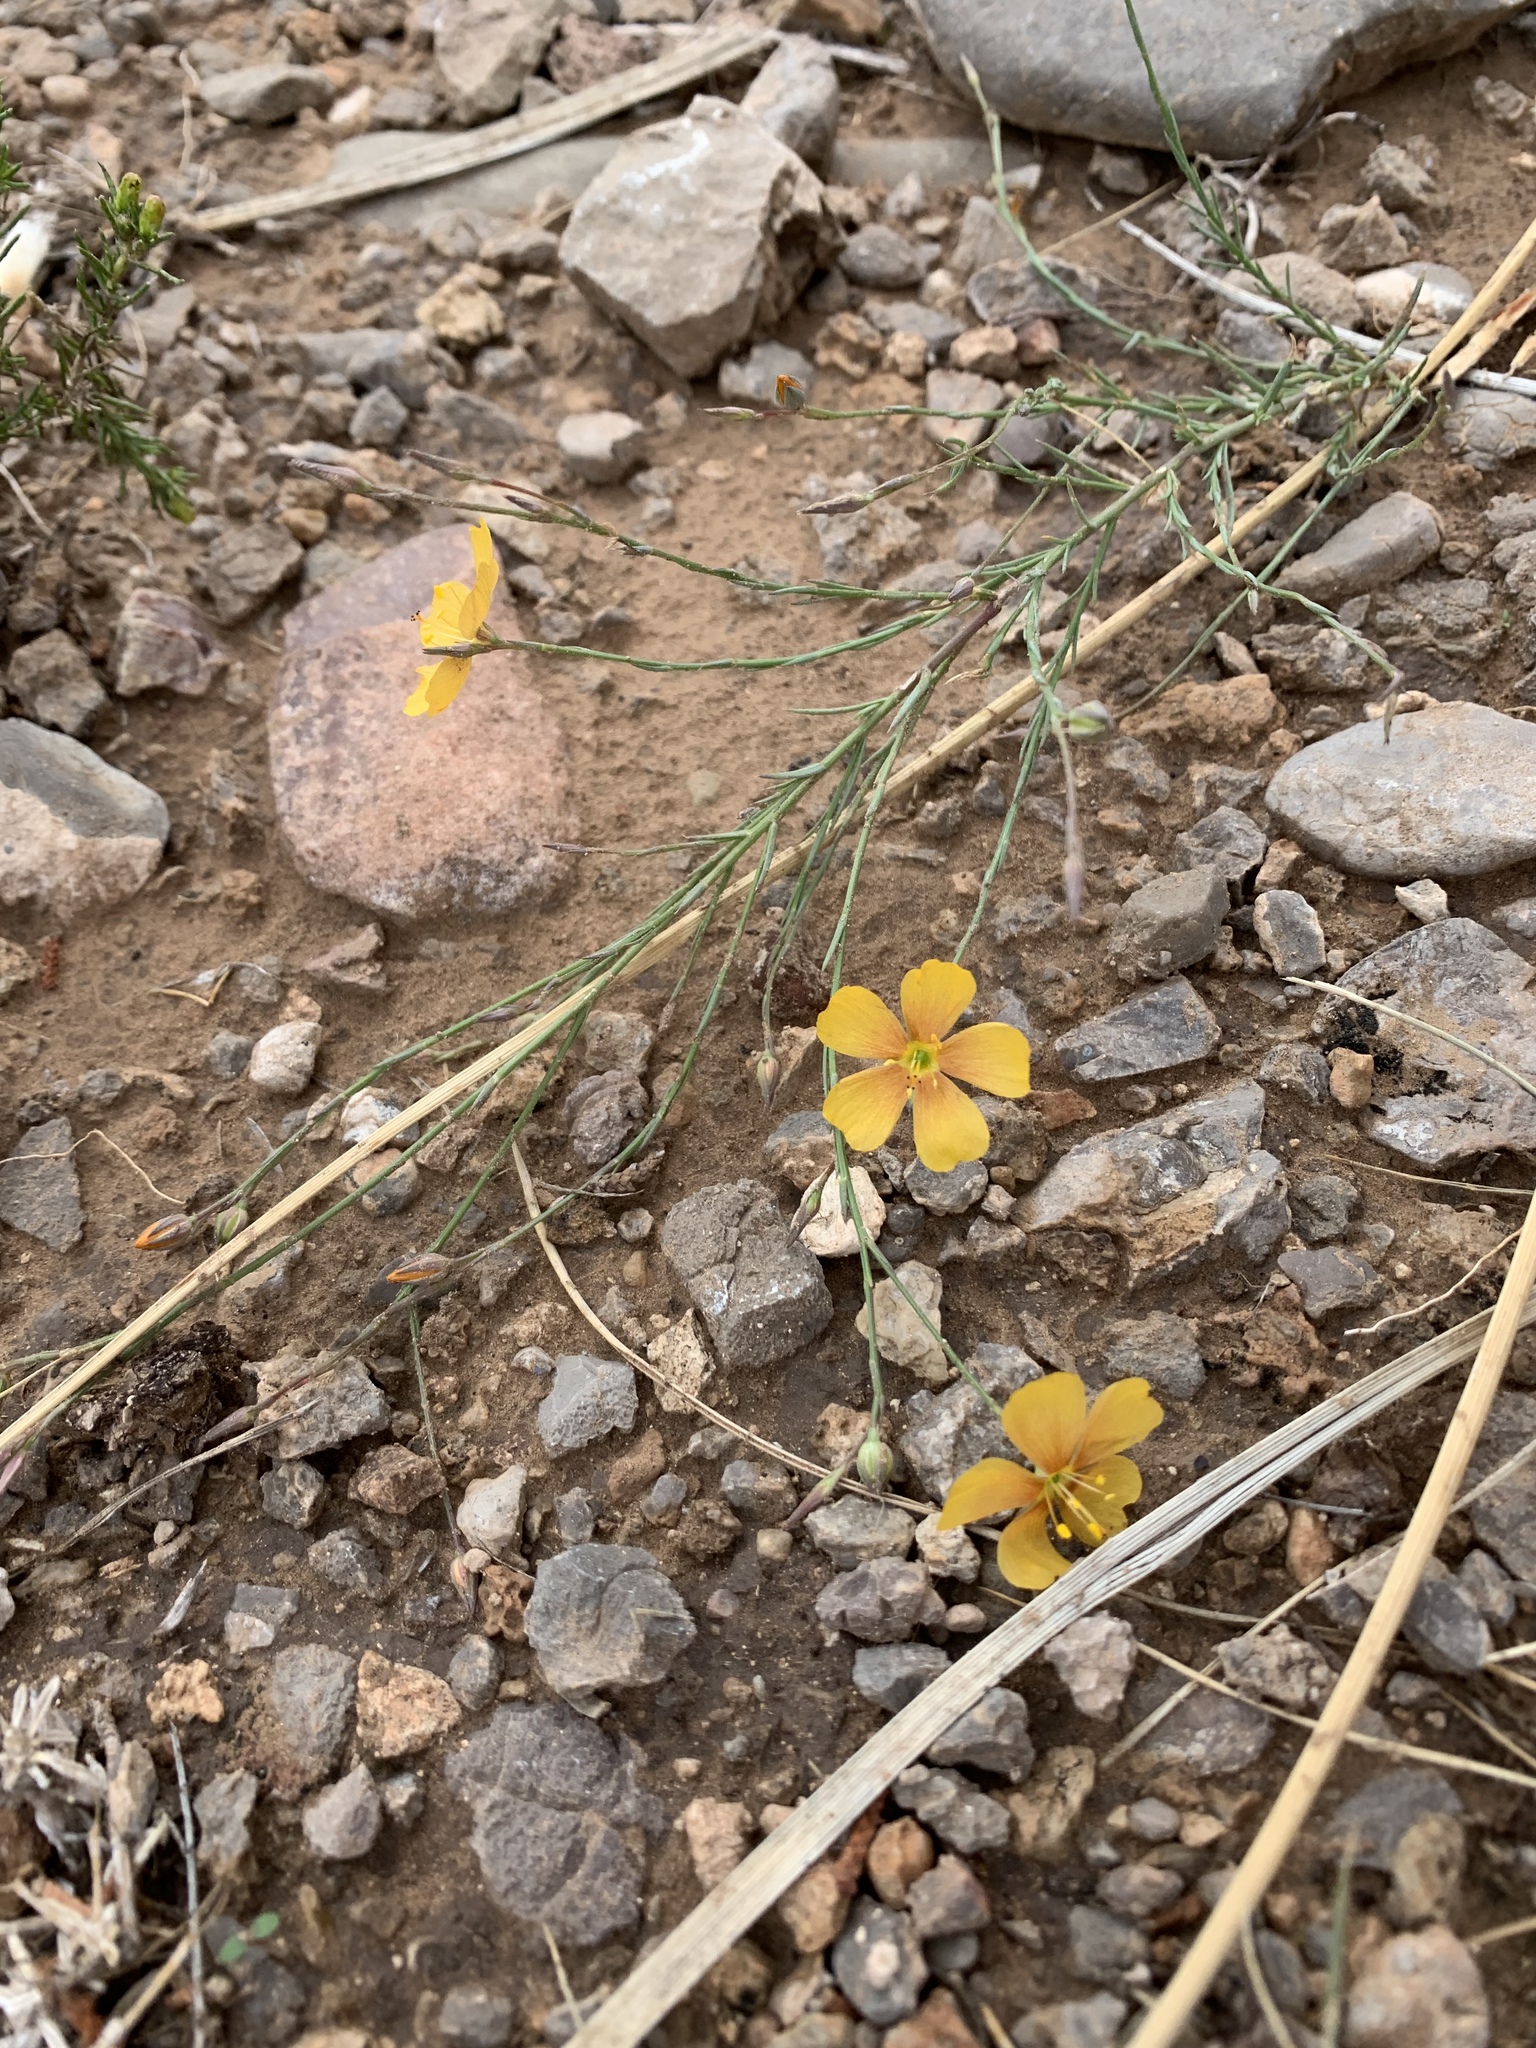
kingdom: Plantae
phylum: Tracheophyta
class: Magnoliopsida
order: Malpighiales
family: Linaceae
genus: Linum
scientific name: Linum berlandieri
